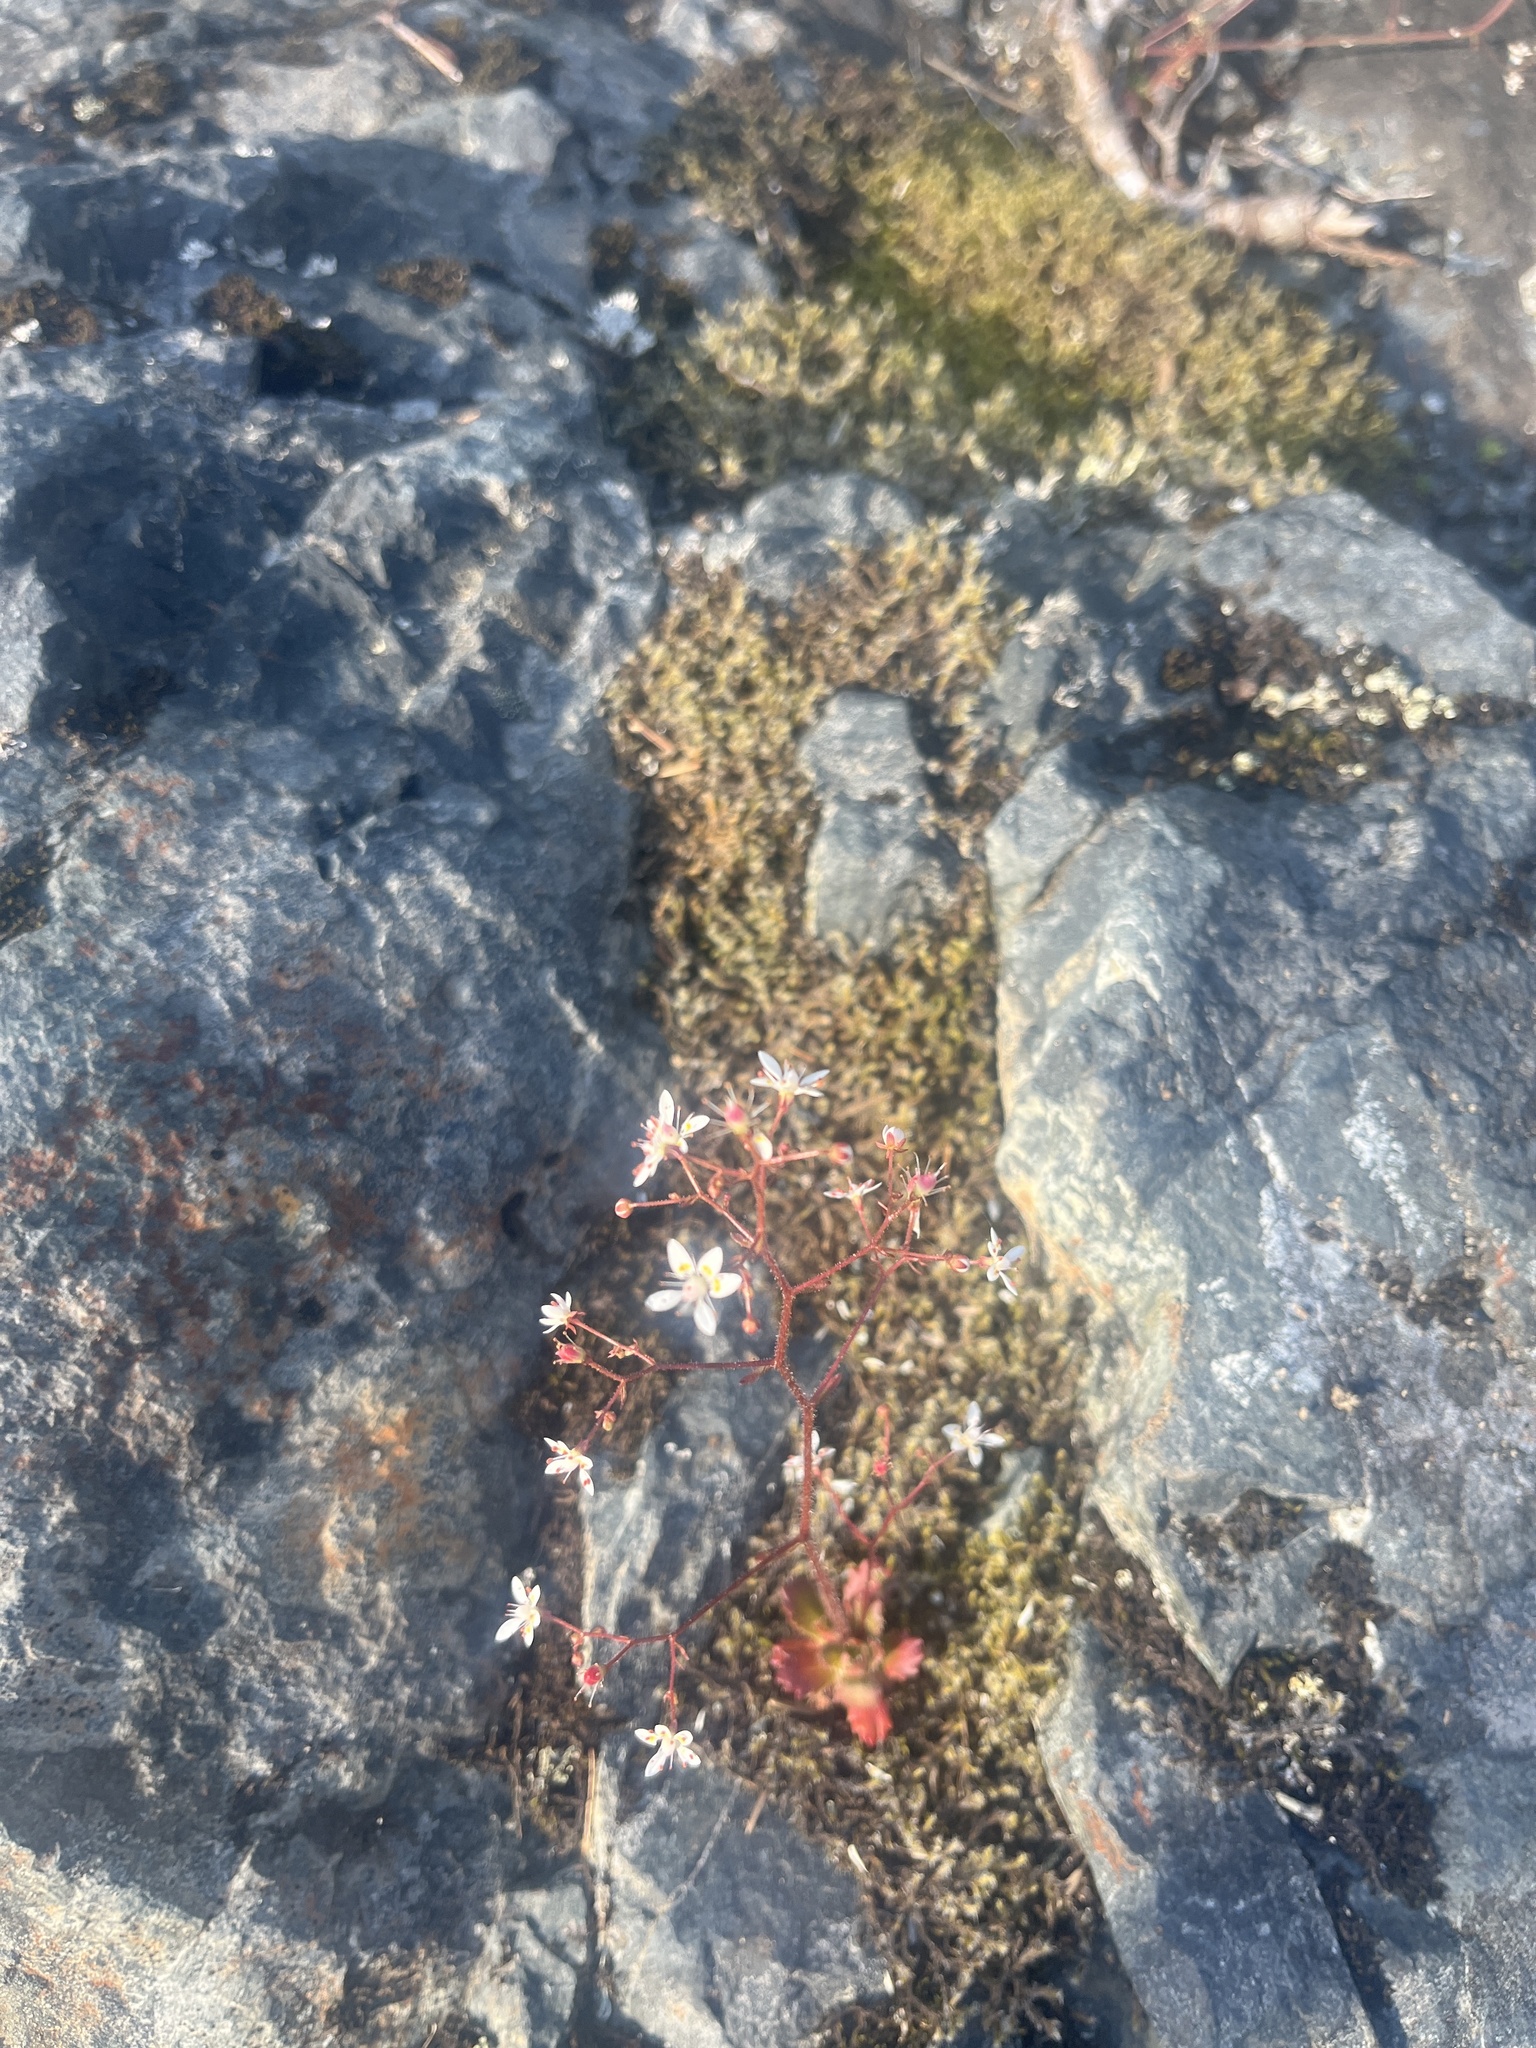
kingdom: Plantae
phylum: Tracheophyta
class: Magnoliopsida
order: Saxifragales
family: Saxifragaceae
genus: Micranthes
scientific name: Micranthes ferruginea
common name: Rusty saxifrage
